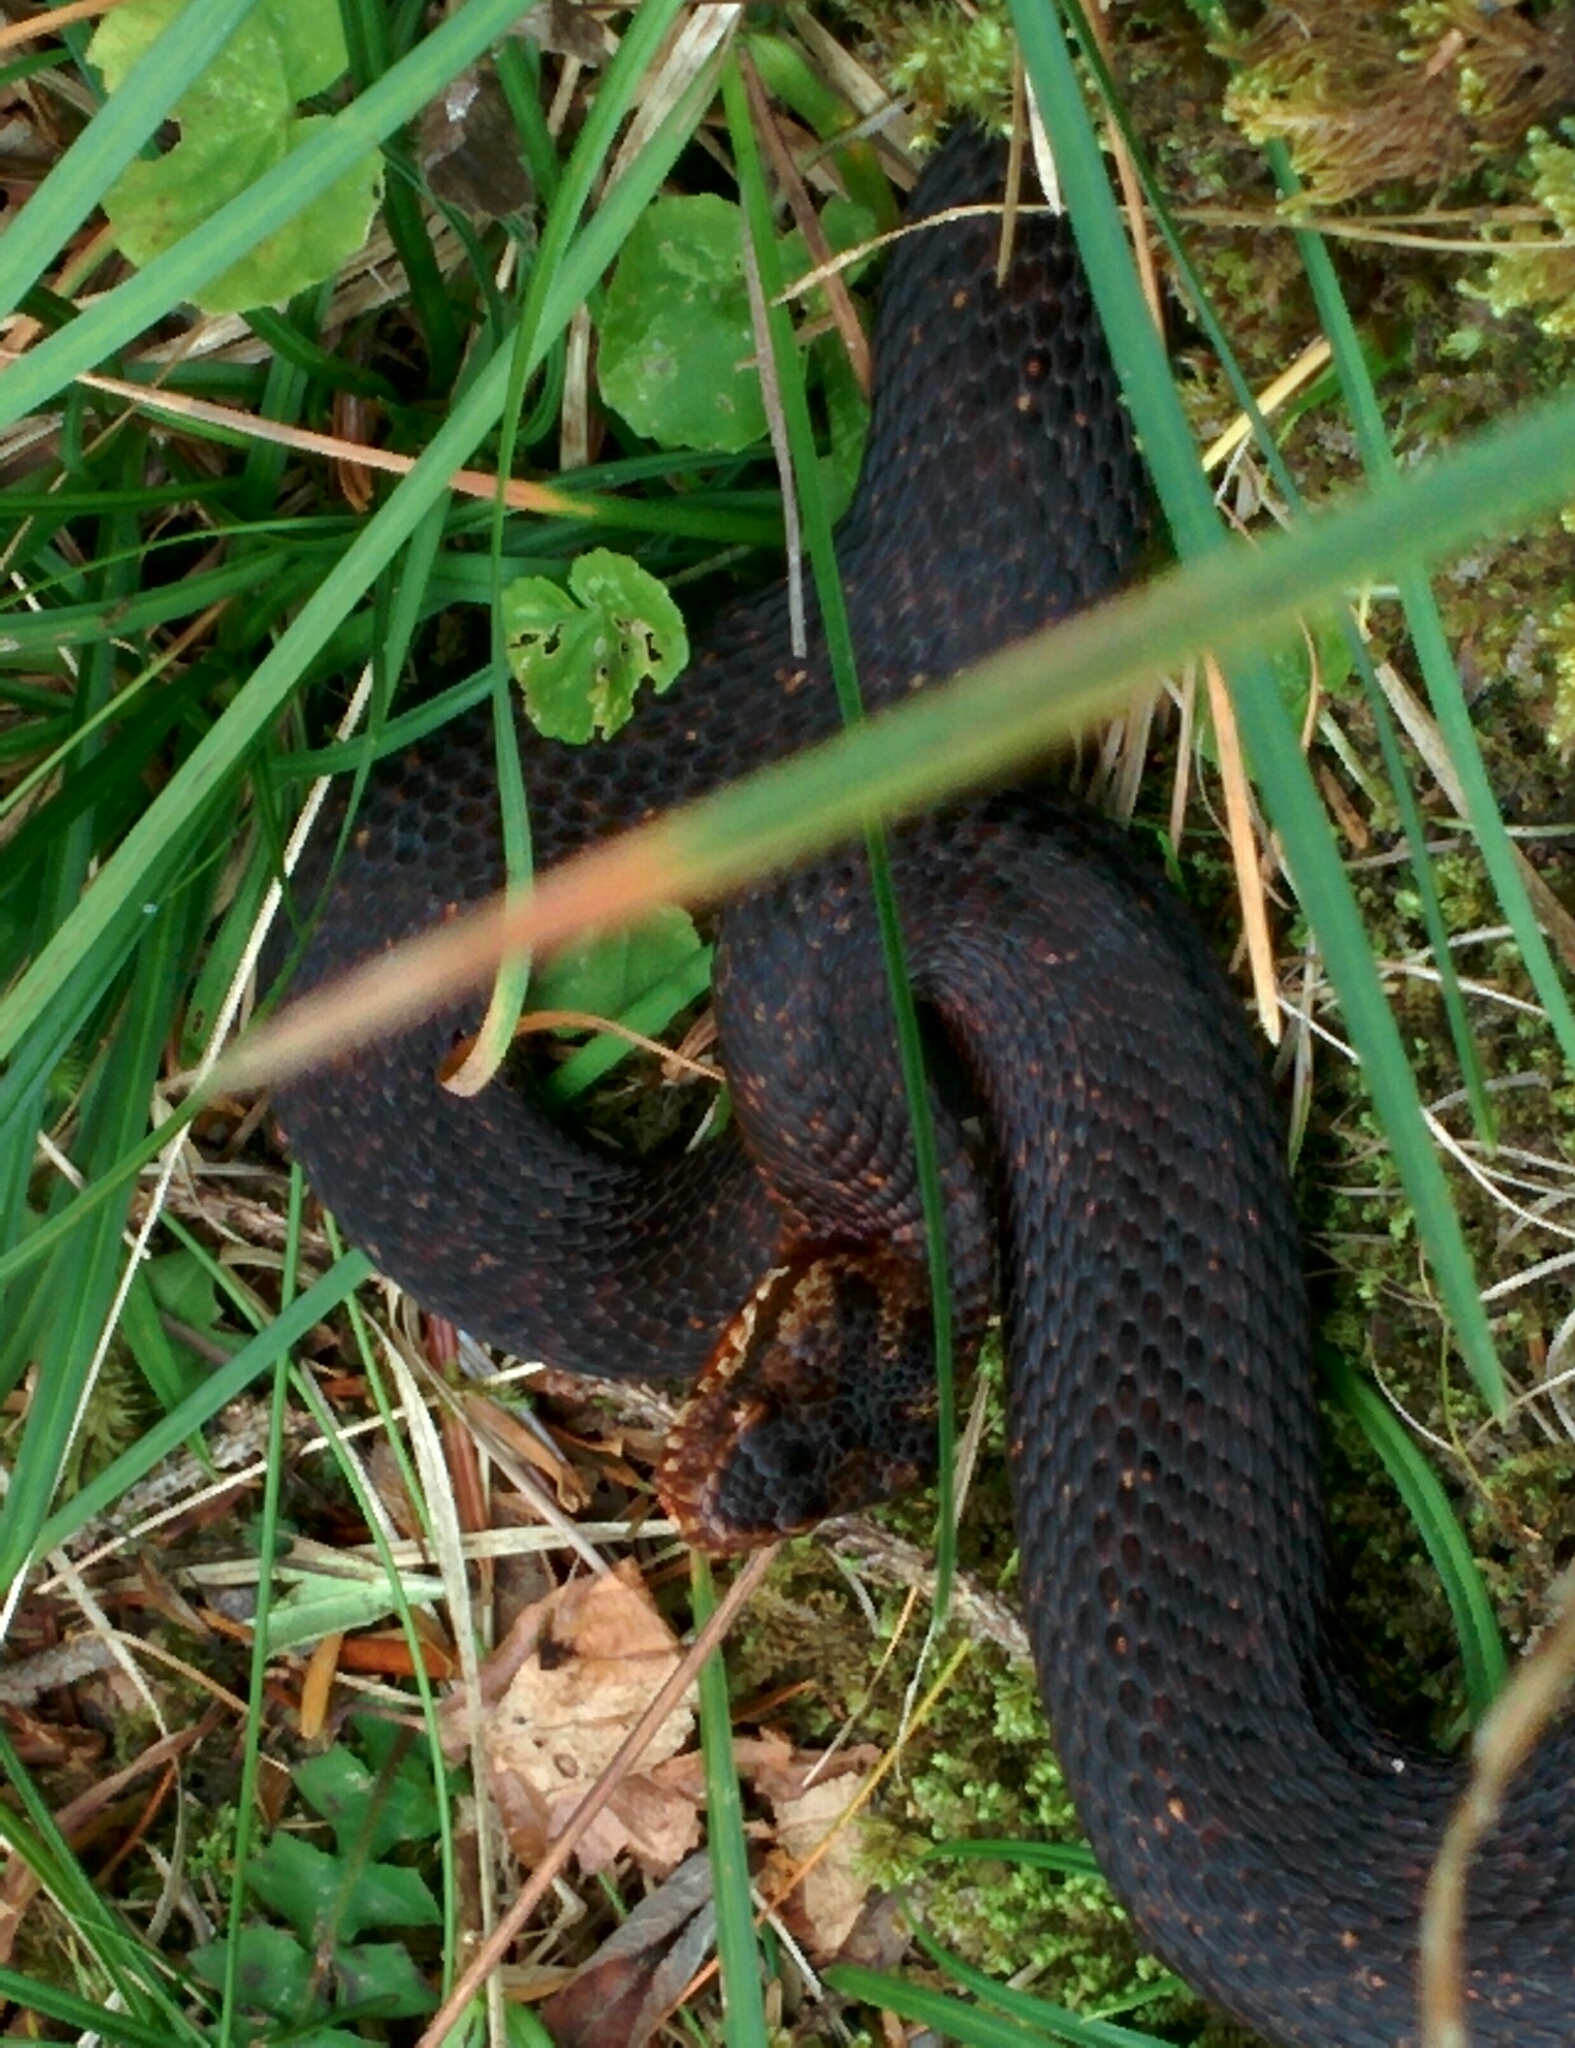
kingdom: Animalia
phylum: Chordata
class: Squamata
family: Viperidae
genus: Vipera
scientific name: Vipera berus
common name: Adder
